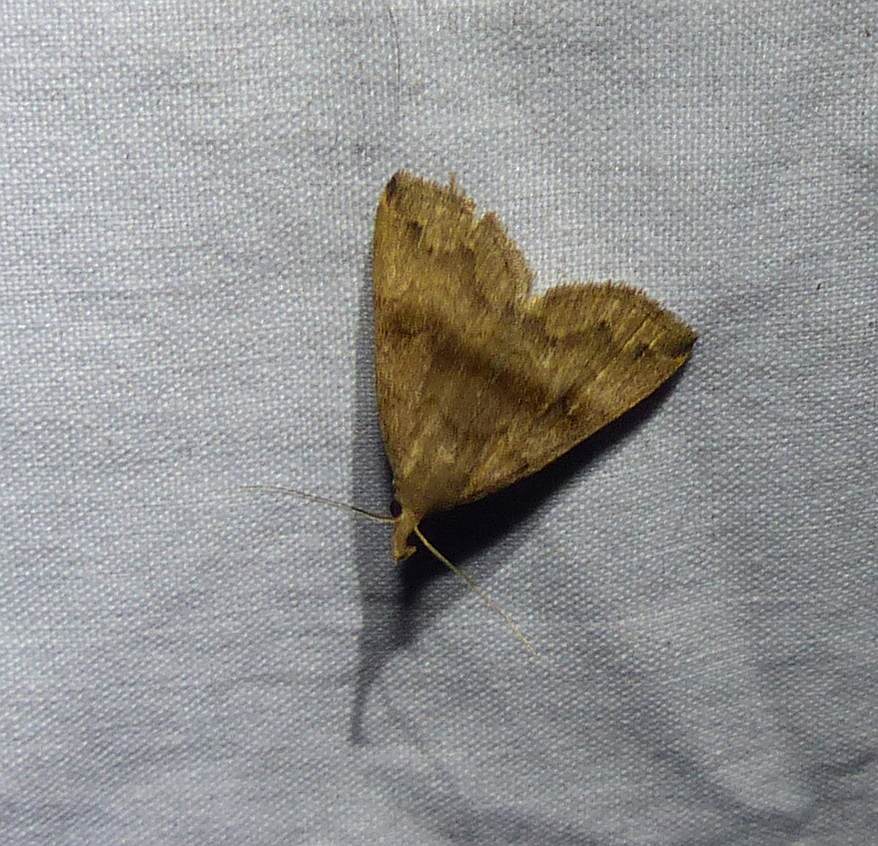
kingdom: Animalia
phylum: Arthropoda
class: Insecta
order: Lepidoptera
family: Erebidae
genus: Phalaenostola
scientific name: Phalaenostola eumelusalis
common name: Dark phalaenostola moth
